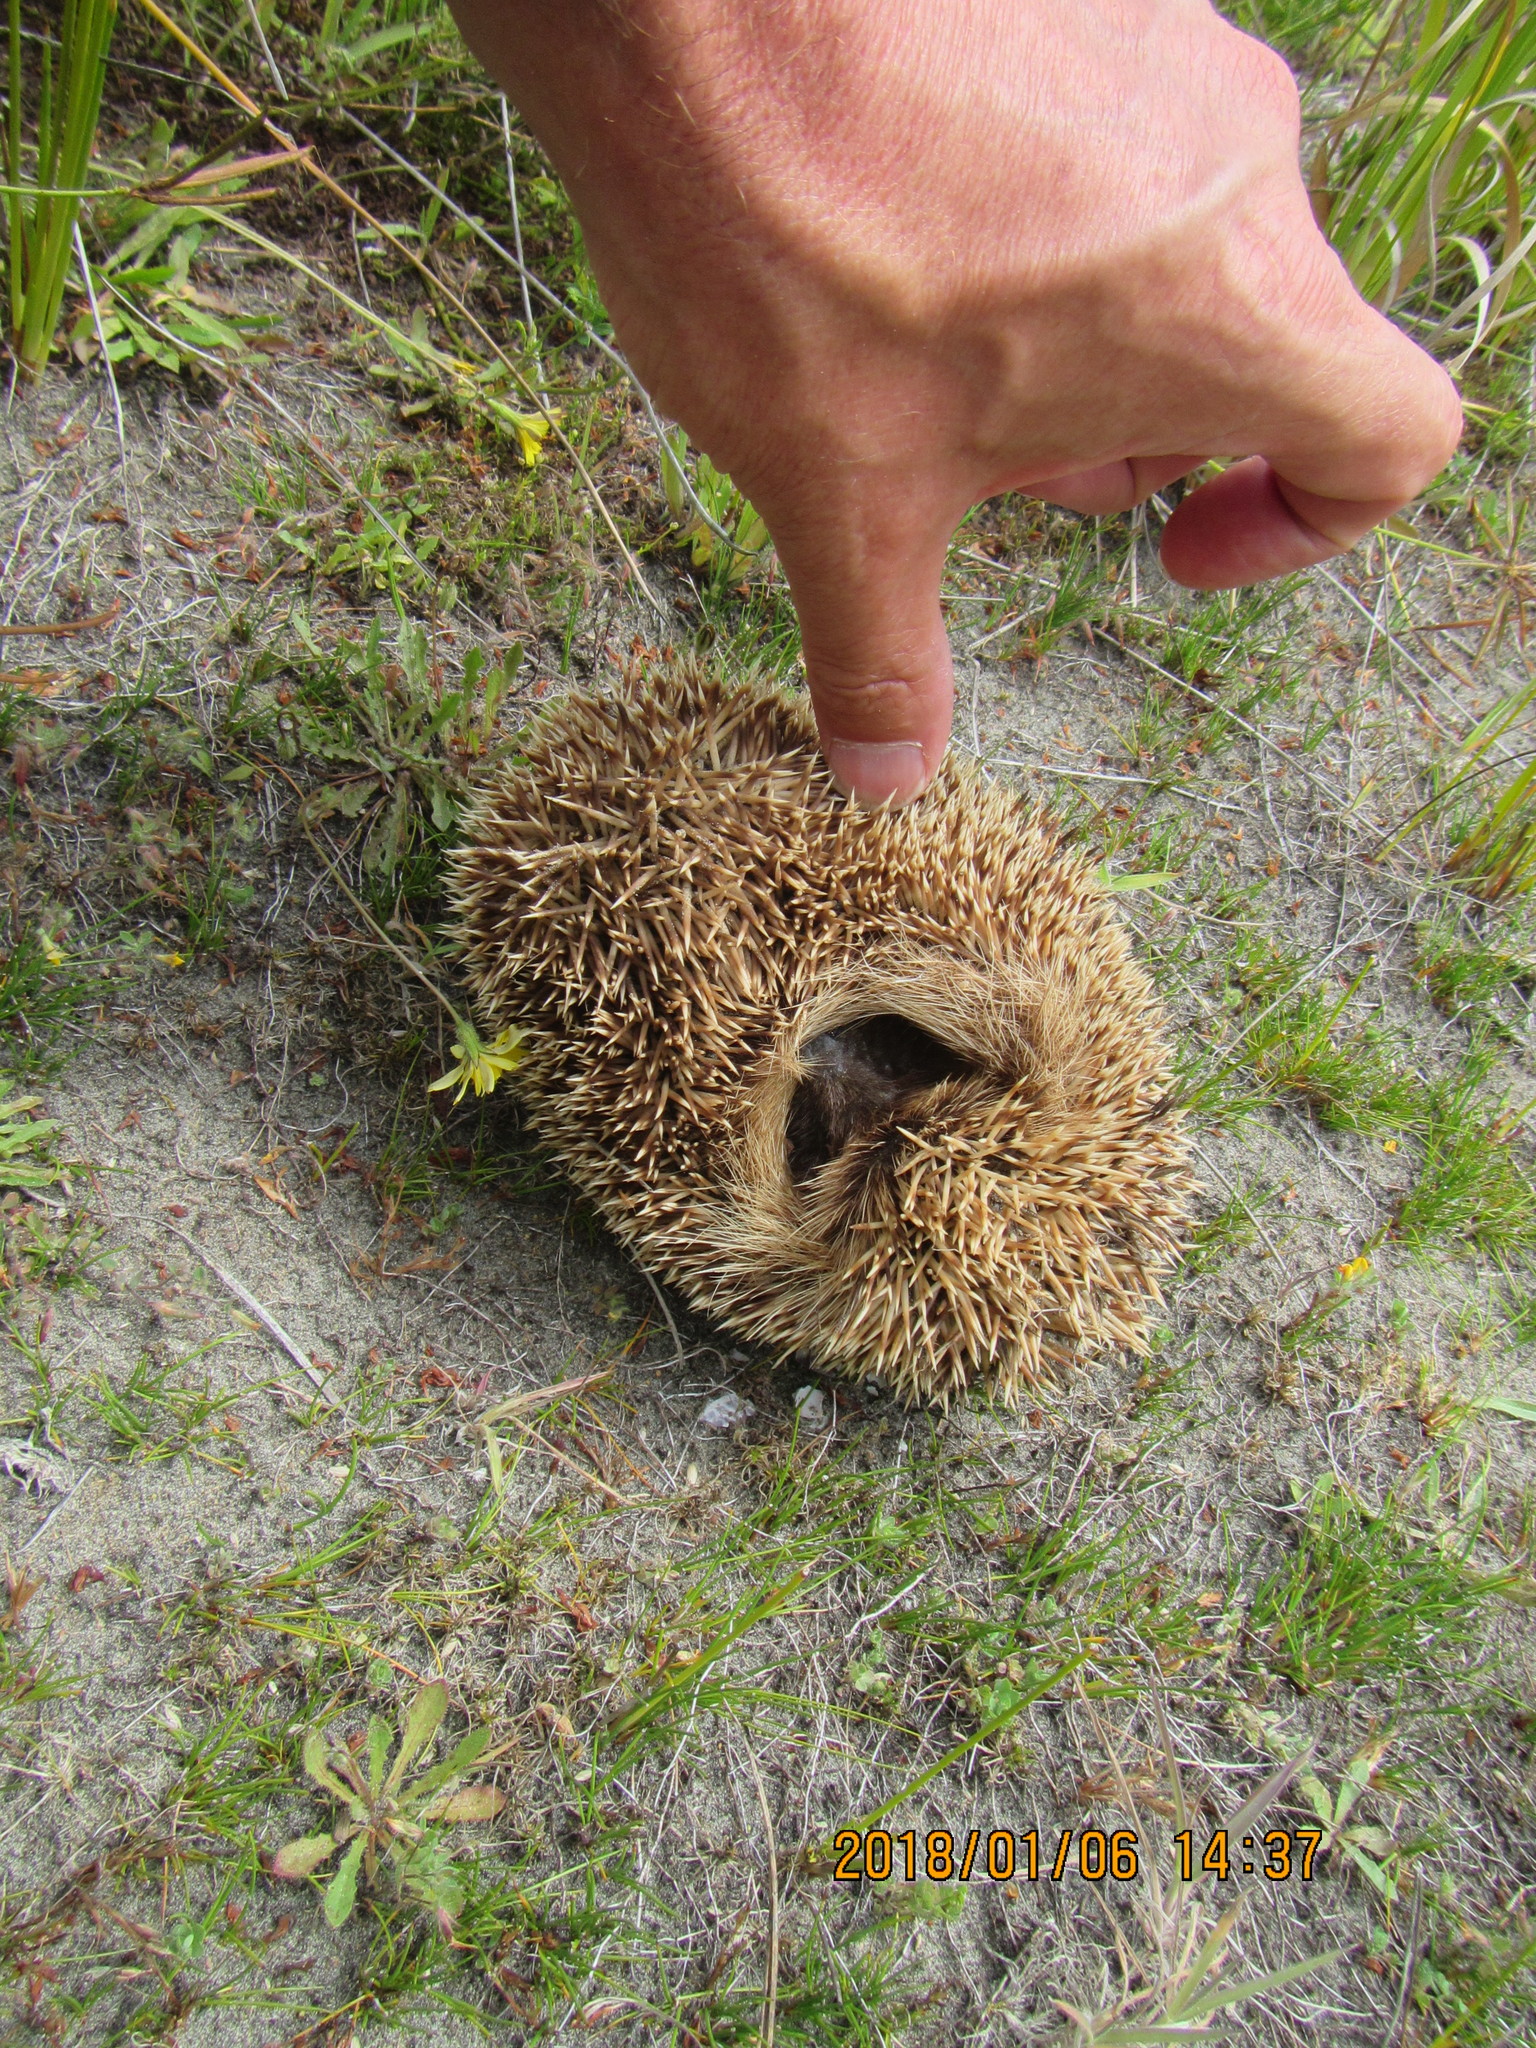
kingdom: Animalia
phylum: Chordata
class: Mammalia
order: Erinaceomorpha
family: Erinaceidae
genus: Erinaceus
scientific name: Erinaceus europaeus
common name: West european hedgehog
